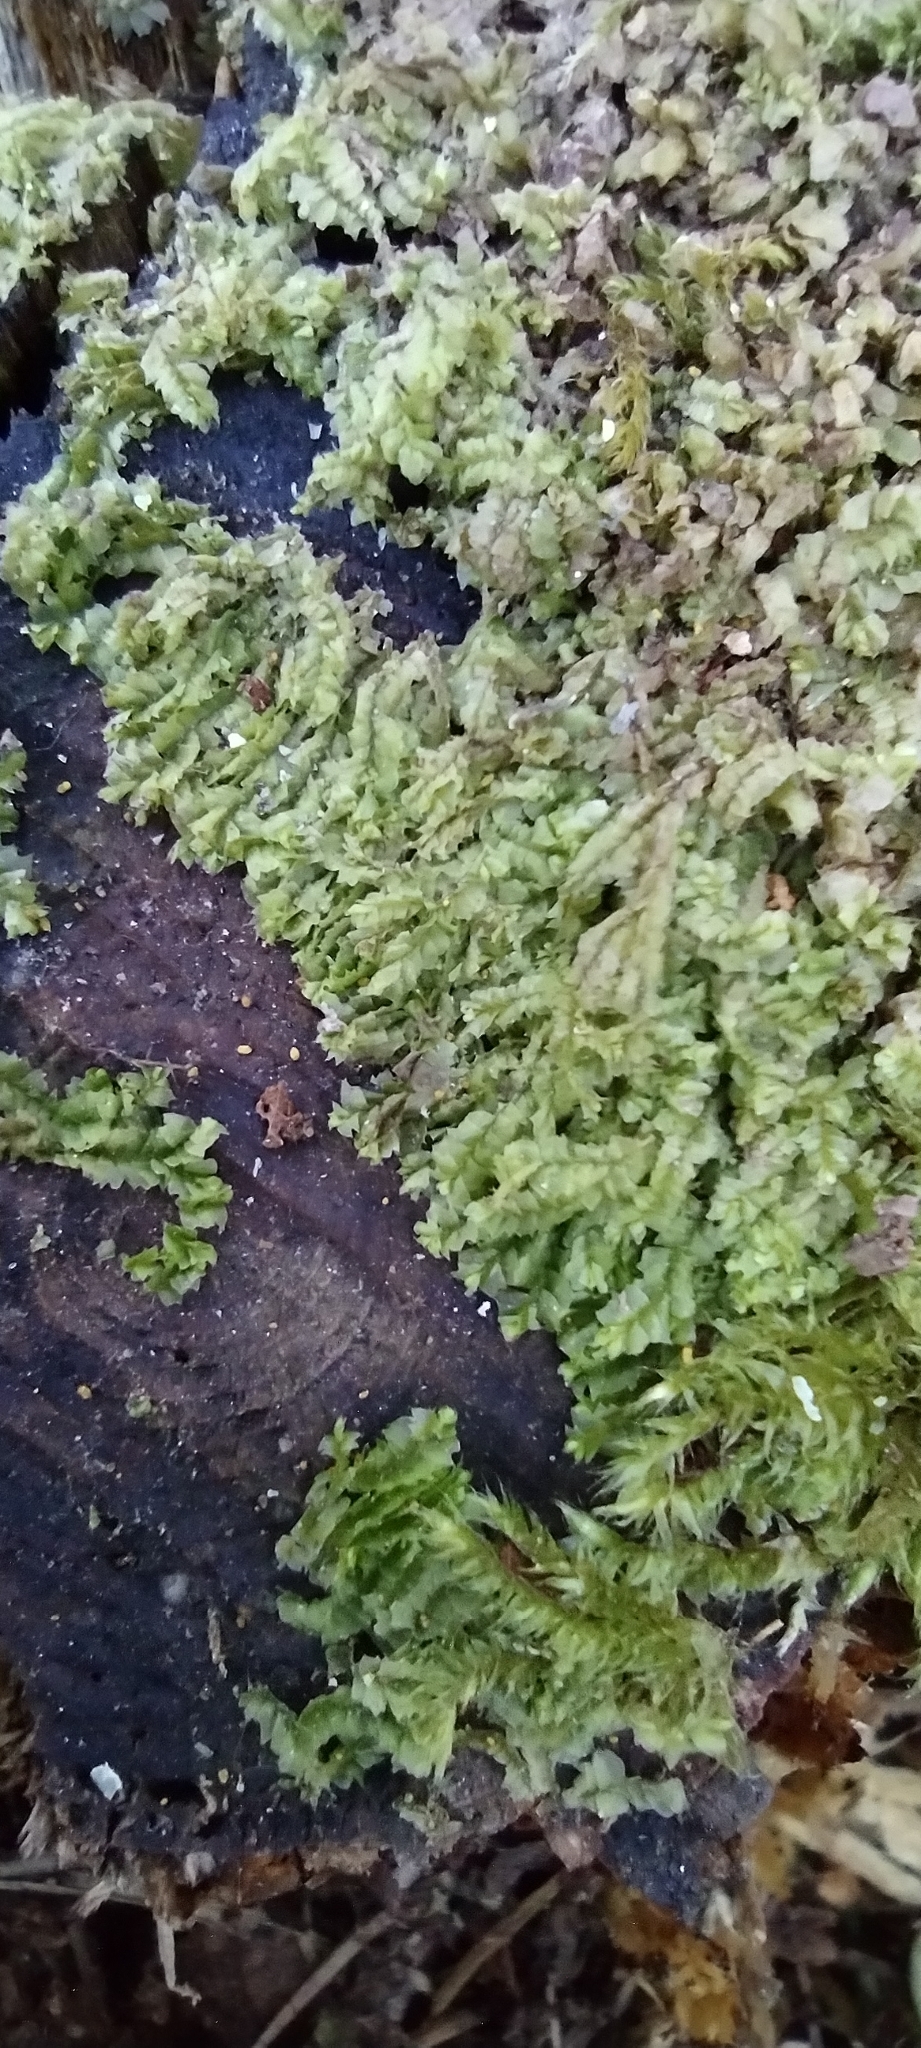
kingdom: Plantae
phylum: Marchantiophyta
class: Jungermanniopsida
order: Jungermanniales
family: Lophocoleaceae
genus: Lophocolea
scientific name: Lophocolea heterophylla
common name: Variable-leaved crestwort
